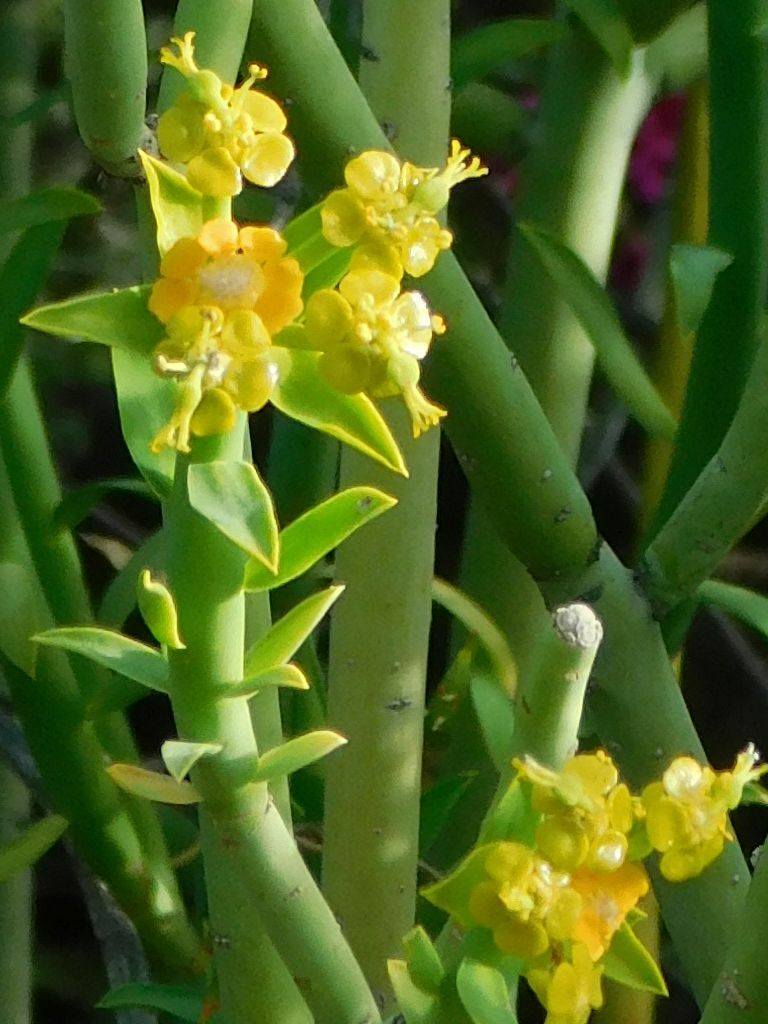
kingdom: Plantae
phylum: Tracheophyta
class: Magnoliopsida
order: Malpighiales
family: Euphorbiaceae
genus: Euphorbia
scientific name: Euphorbia mauritanica
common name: Jackal's-food
